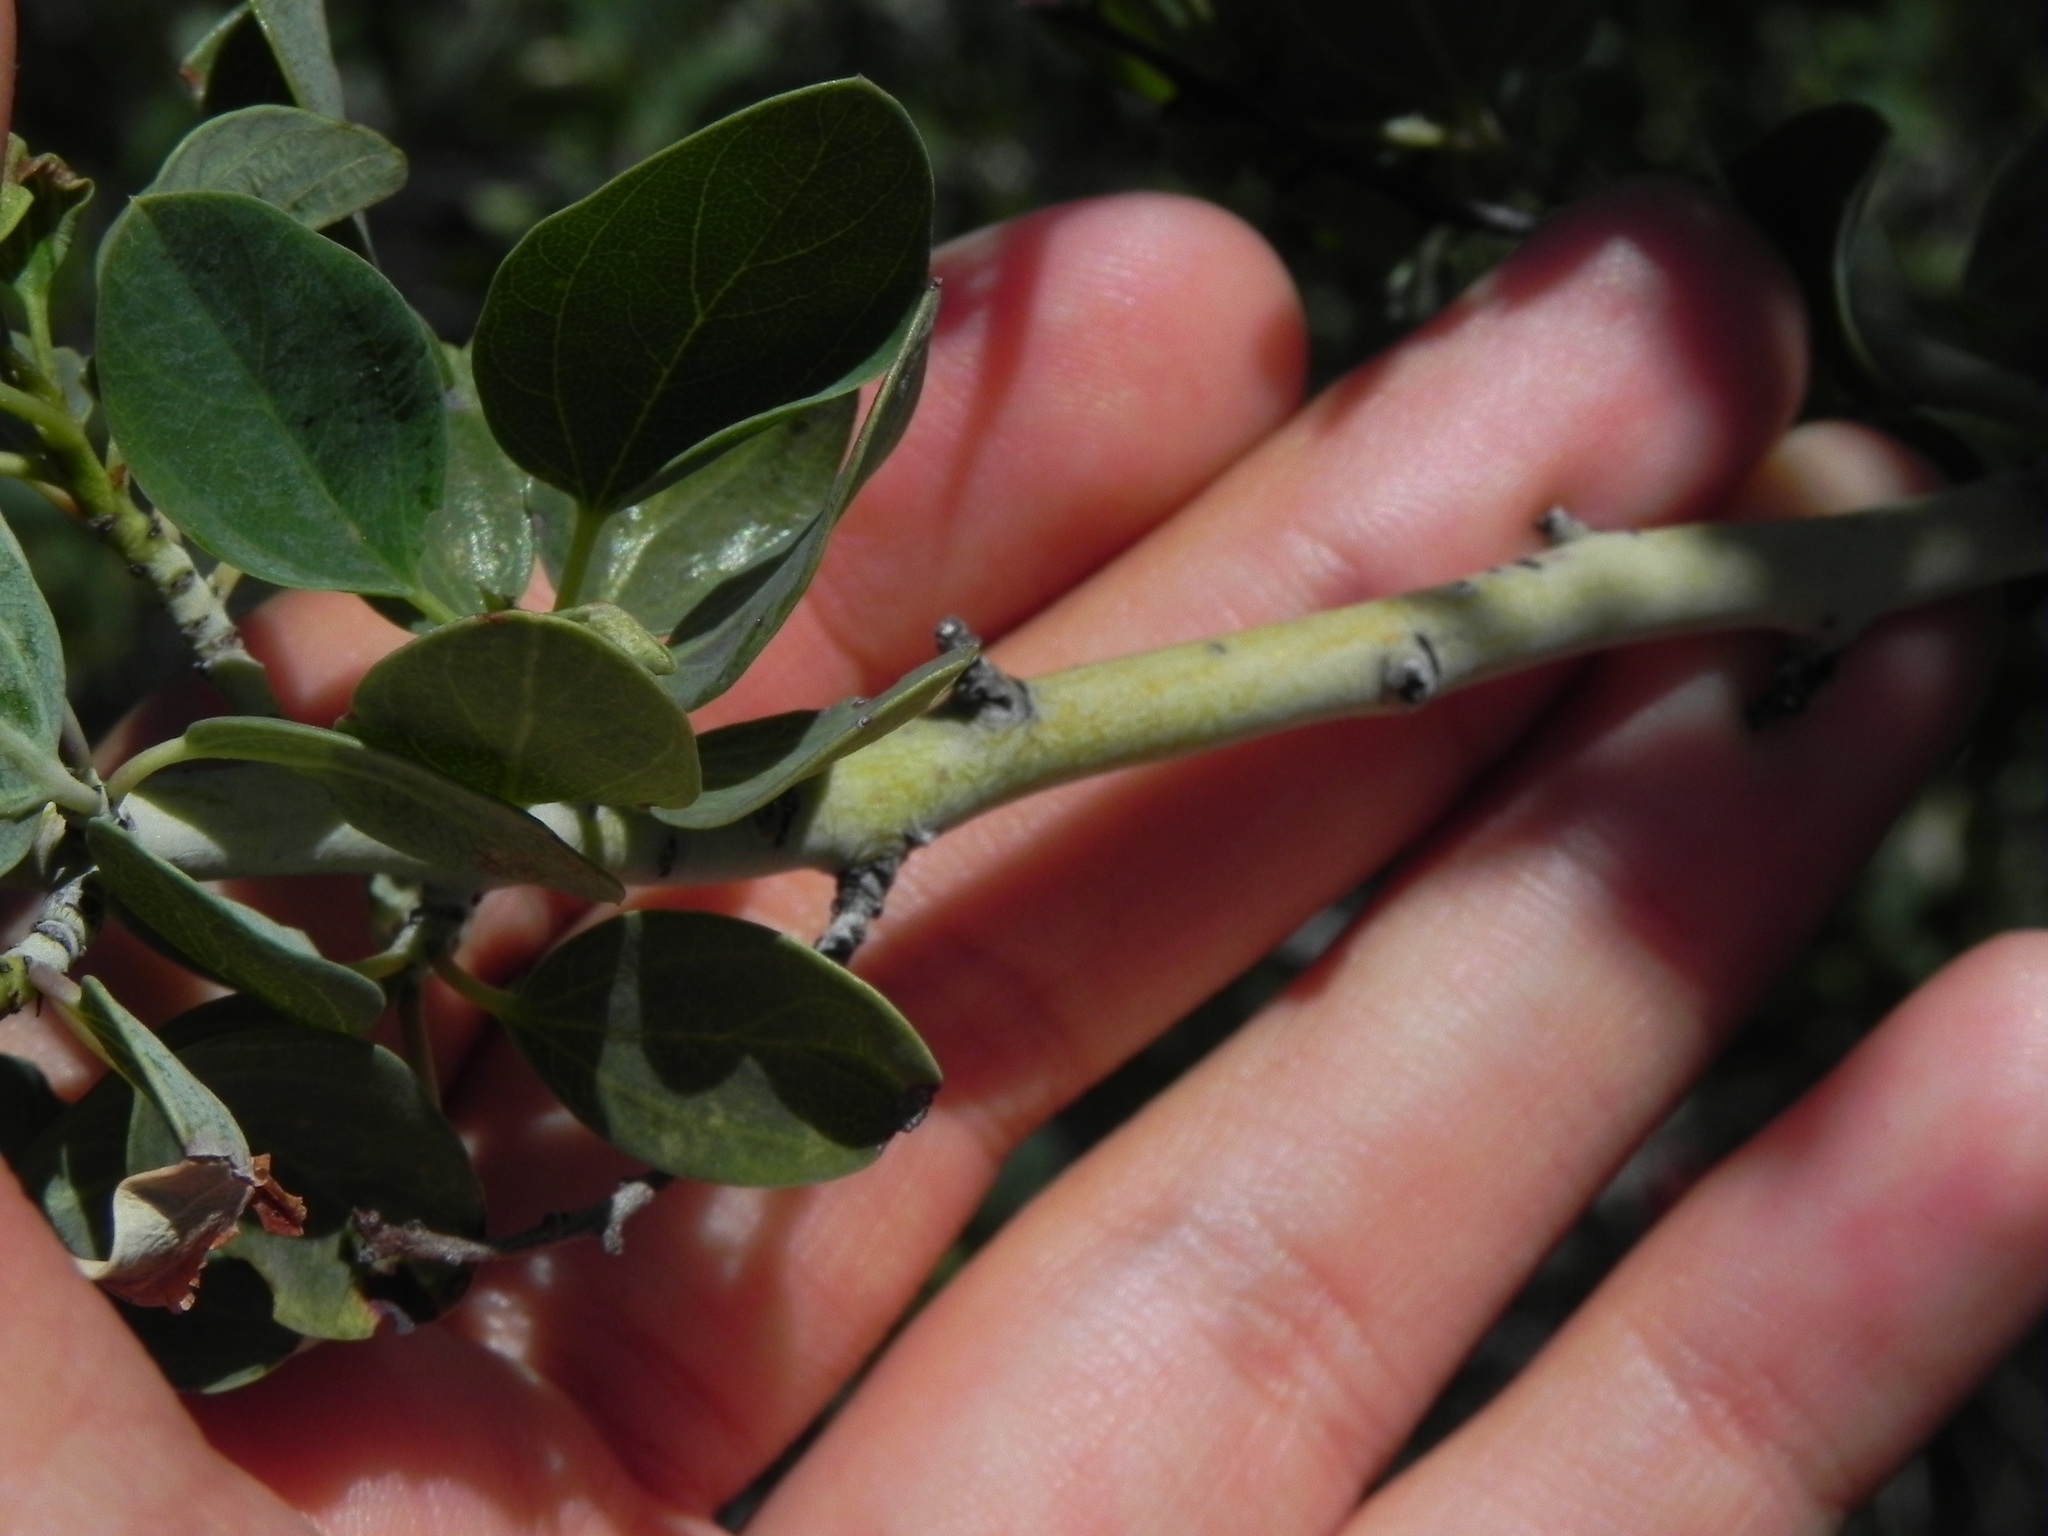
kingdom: Plantae
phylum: Tracheophyta
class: Magnoliopsida
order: Rosales
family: Rhamnaceae
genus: Ceanothus
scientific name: Ceanothus leucodermis
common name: Chaparral whitethorn
